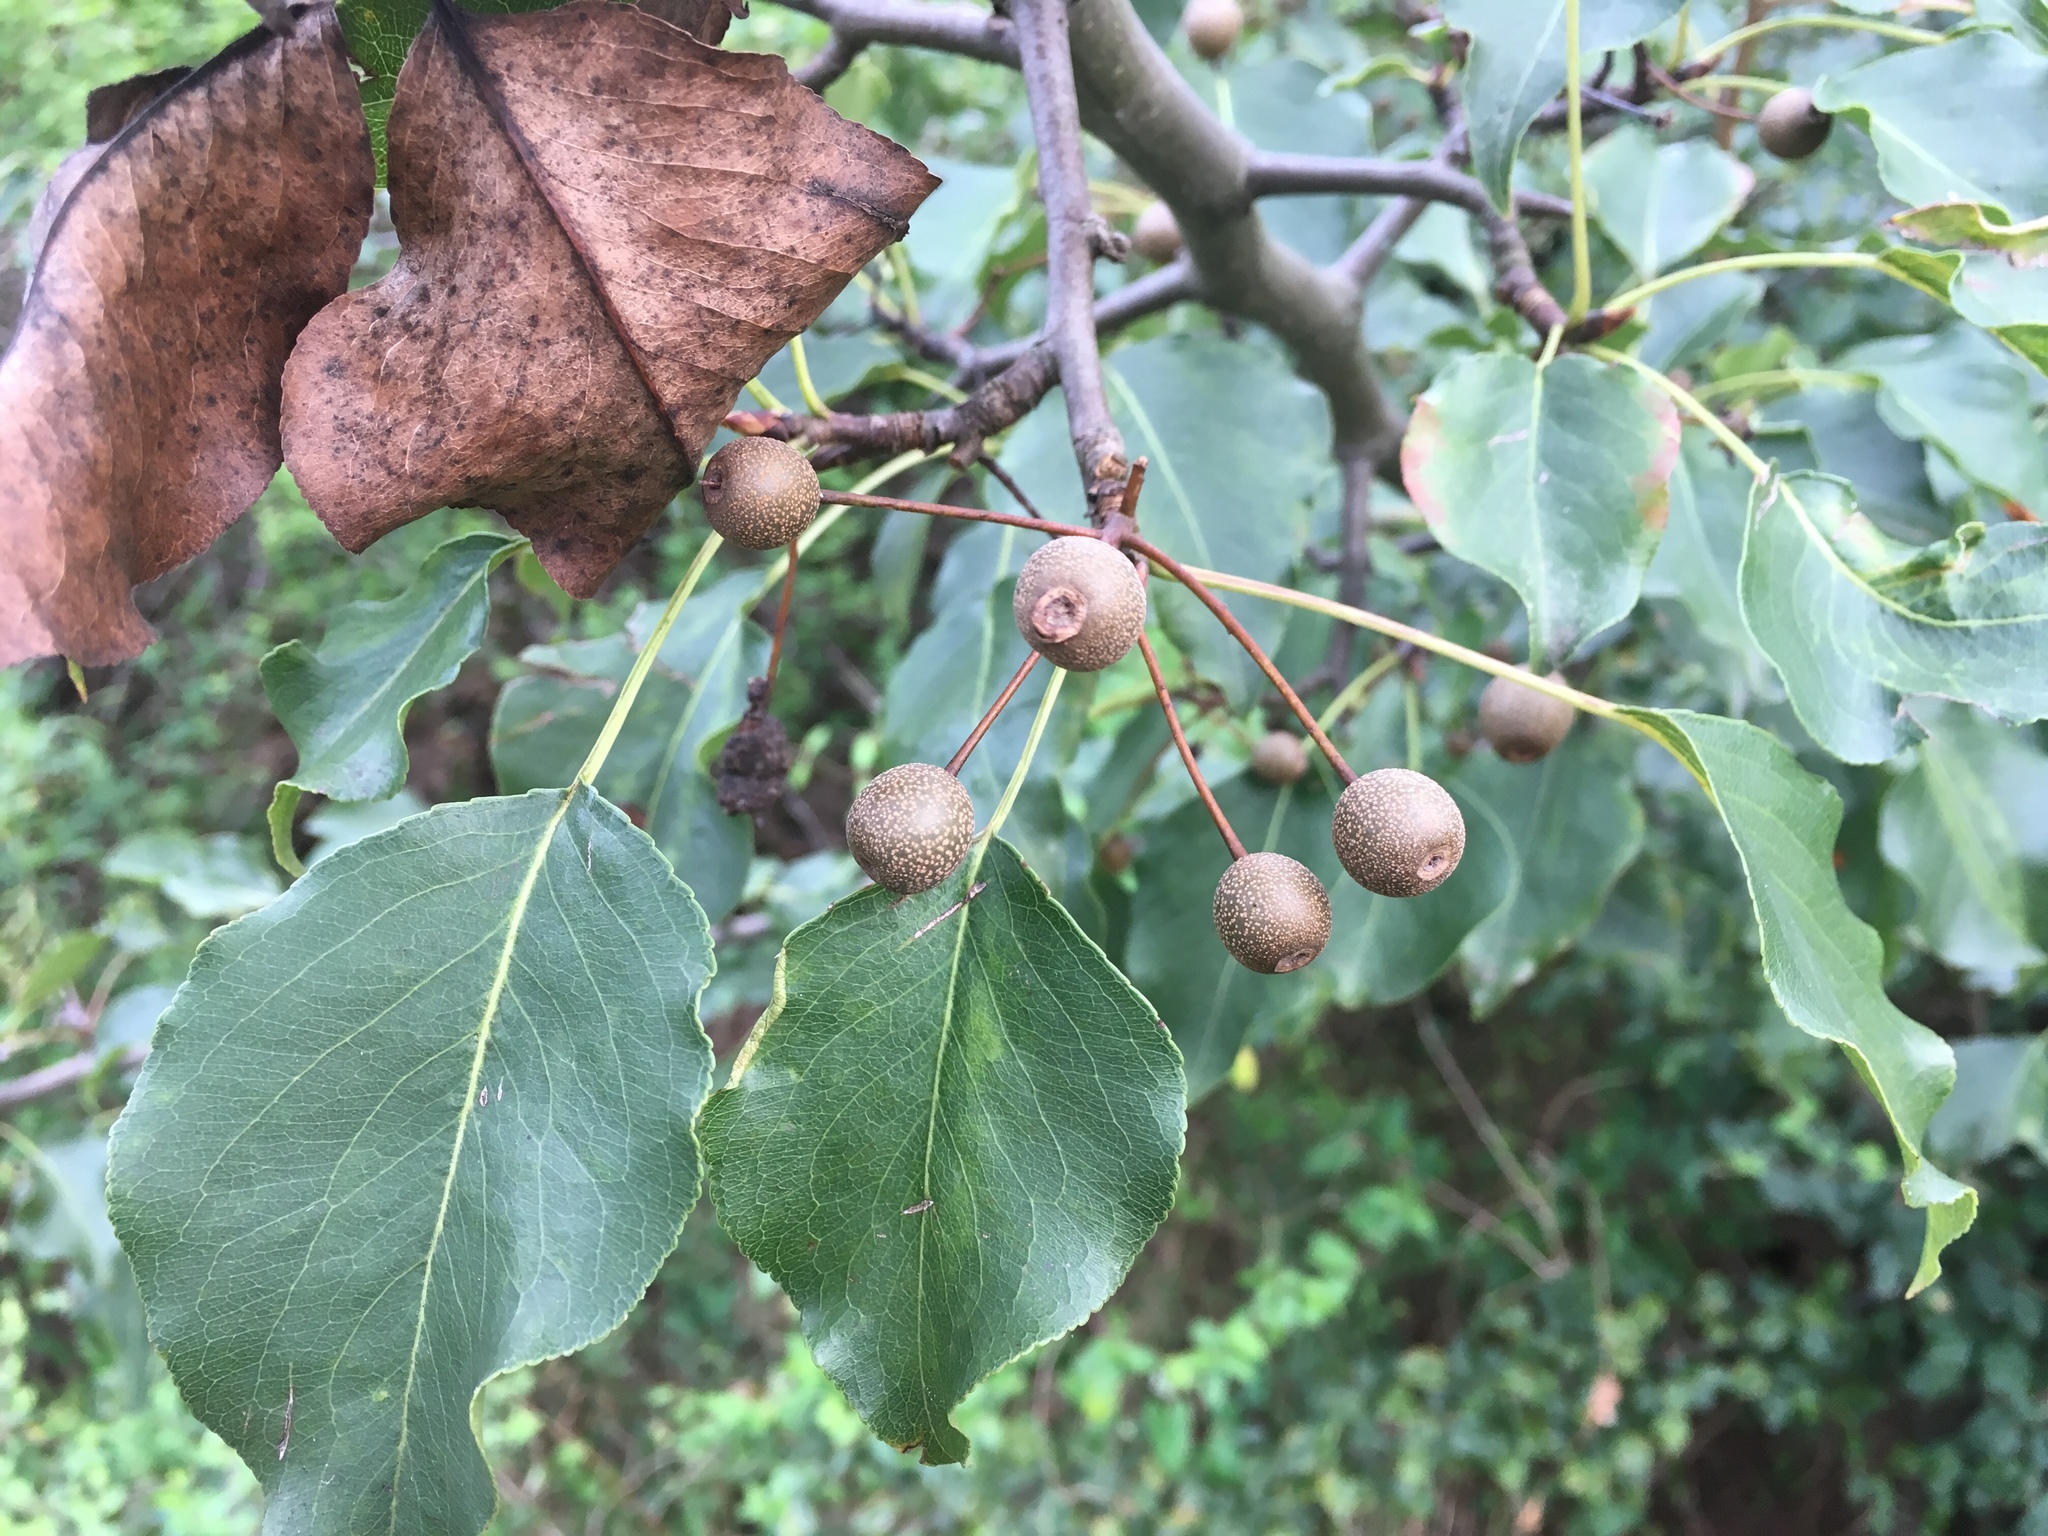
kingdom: Plantae
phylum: Tracheophyta
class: Magnoliopsida
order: Rosales
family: Rosaceae
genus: Pyrus
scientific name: Pyrus calleryana
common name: Callery pear
